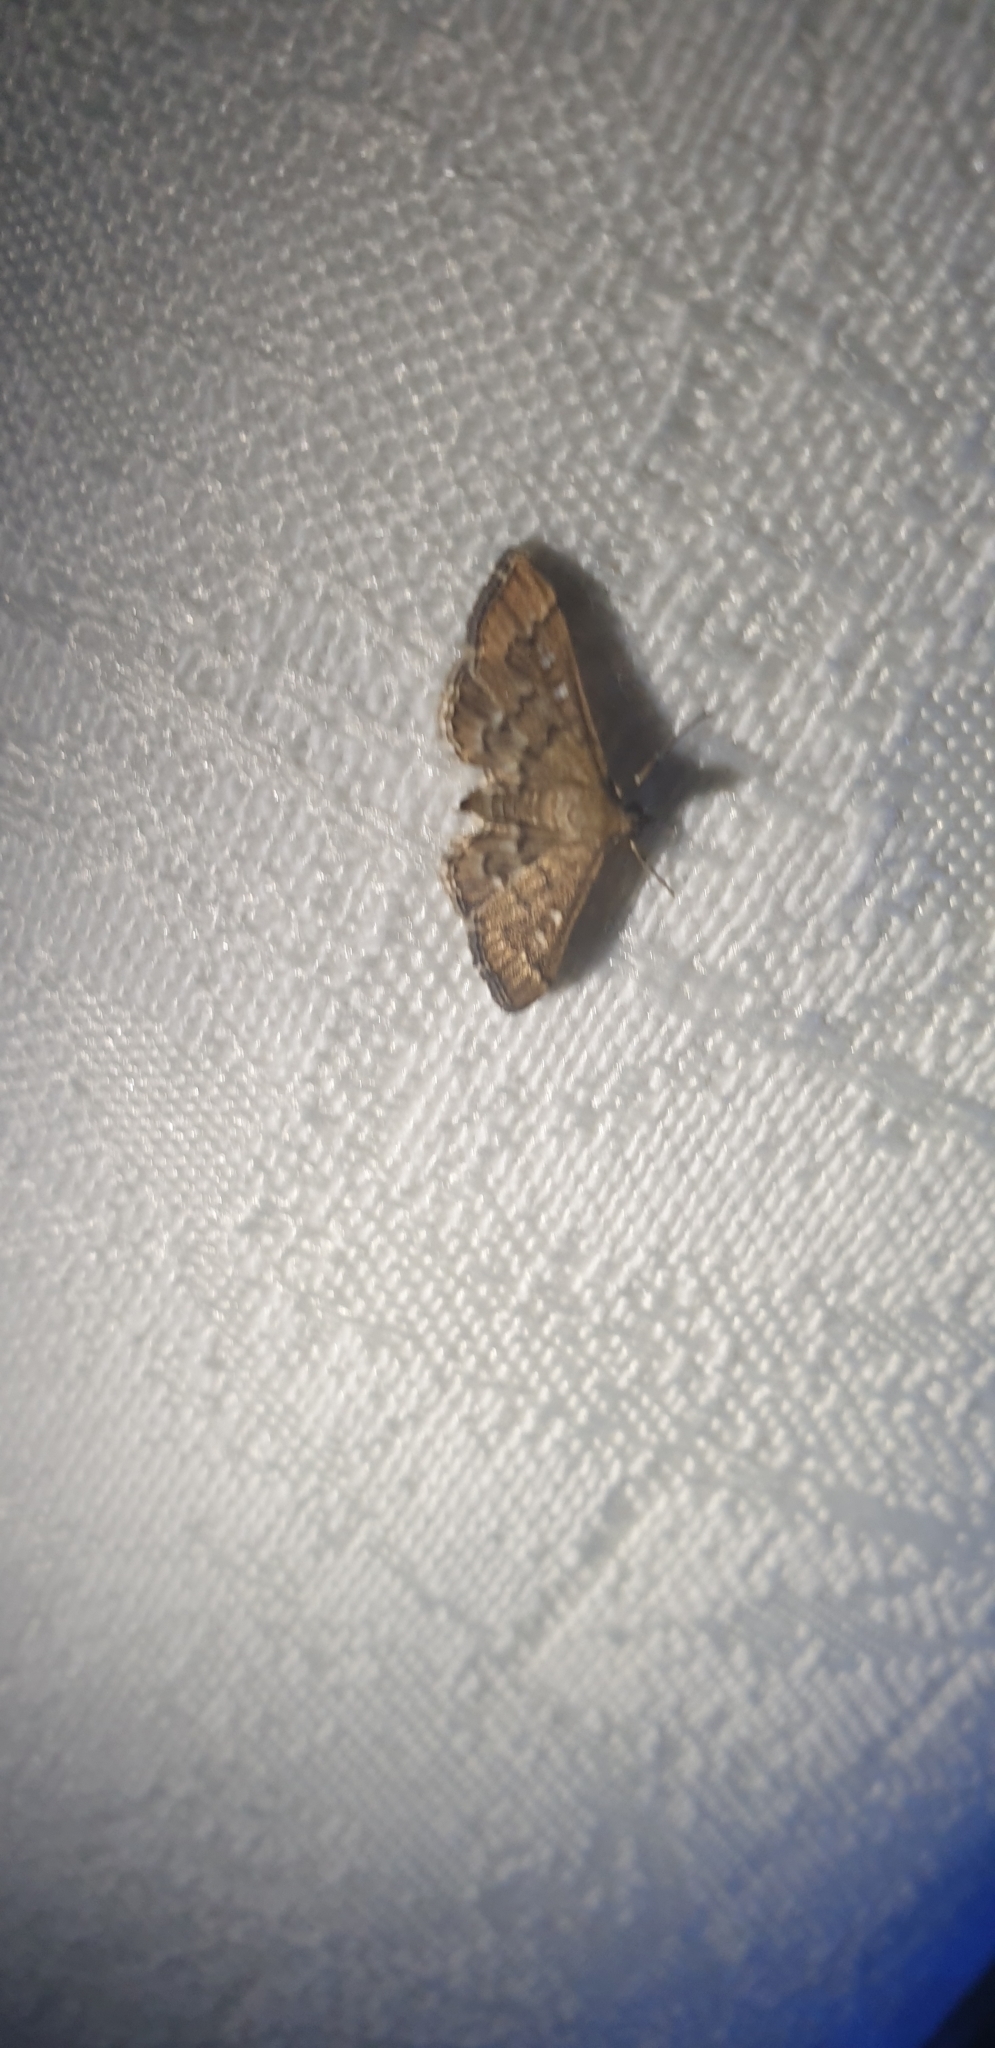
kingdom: Animalia
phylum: Arthropoda
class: Insecta
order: Lepidoptera
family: Crambidae
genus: Nacoleia
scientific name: Nacoleia rhoeoalis
